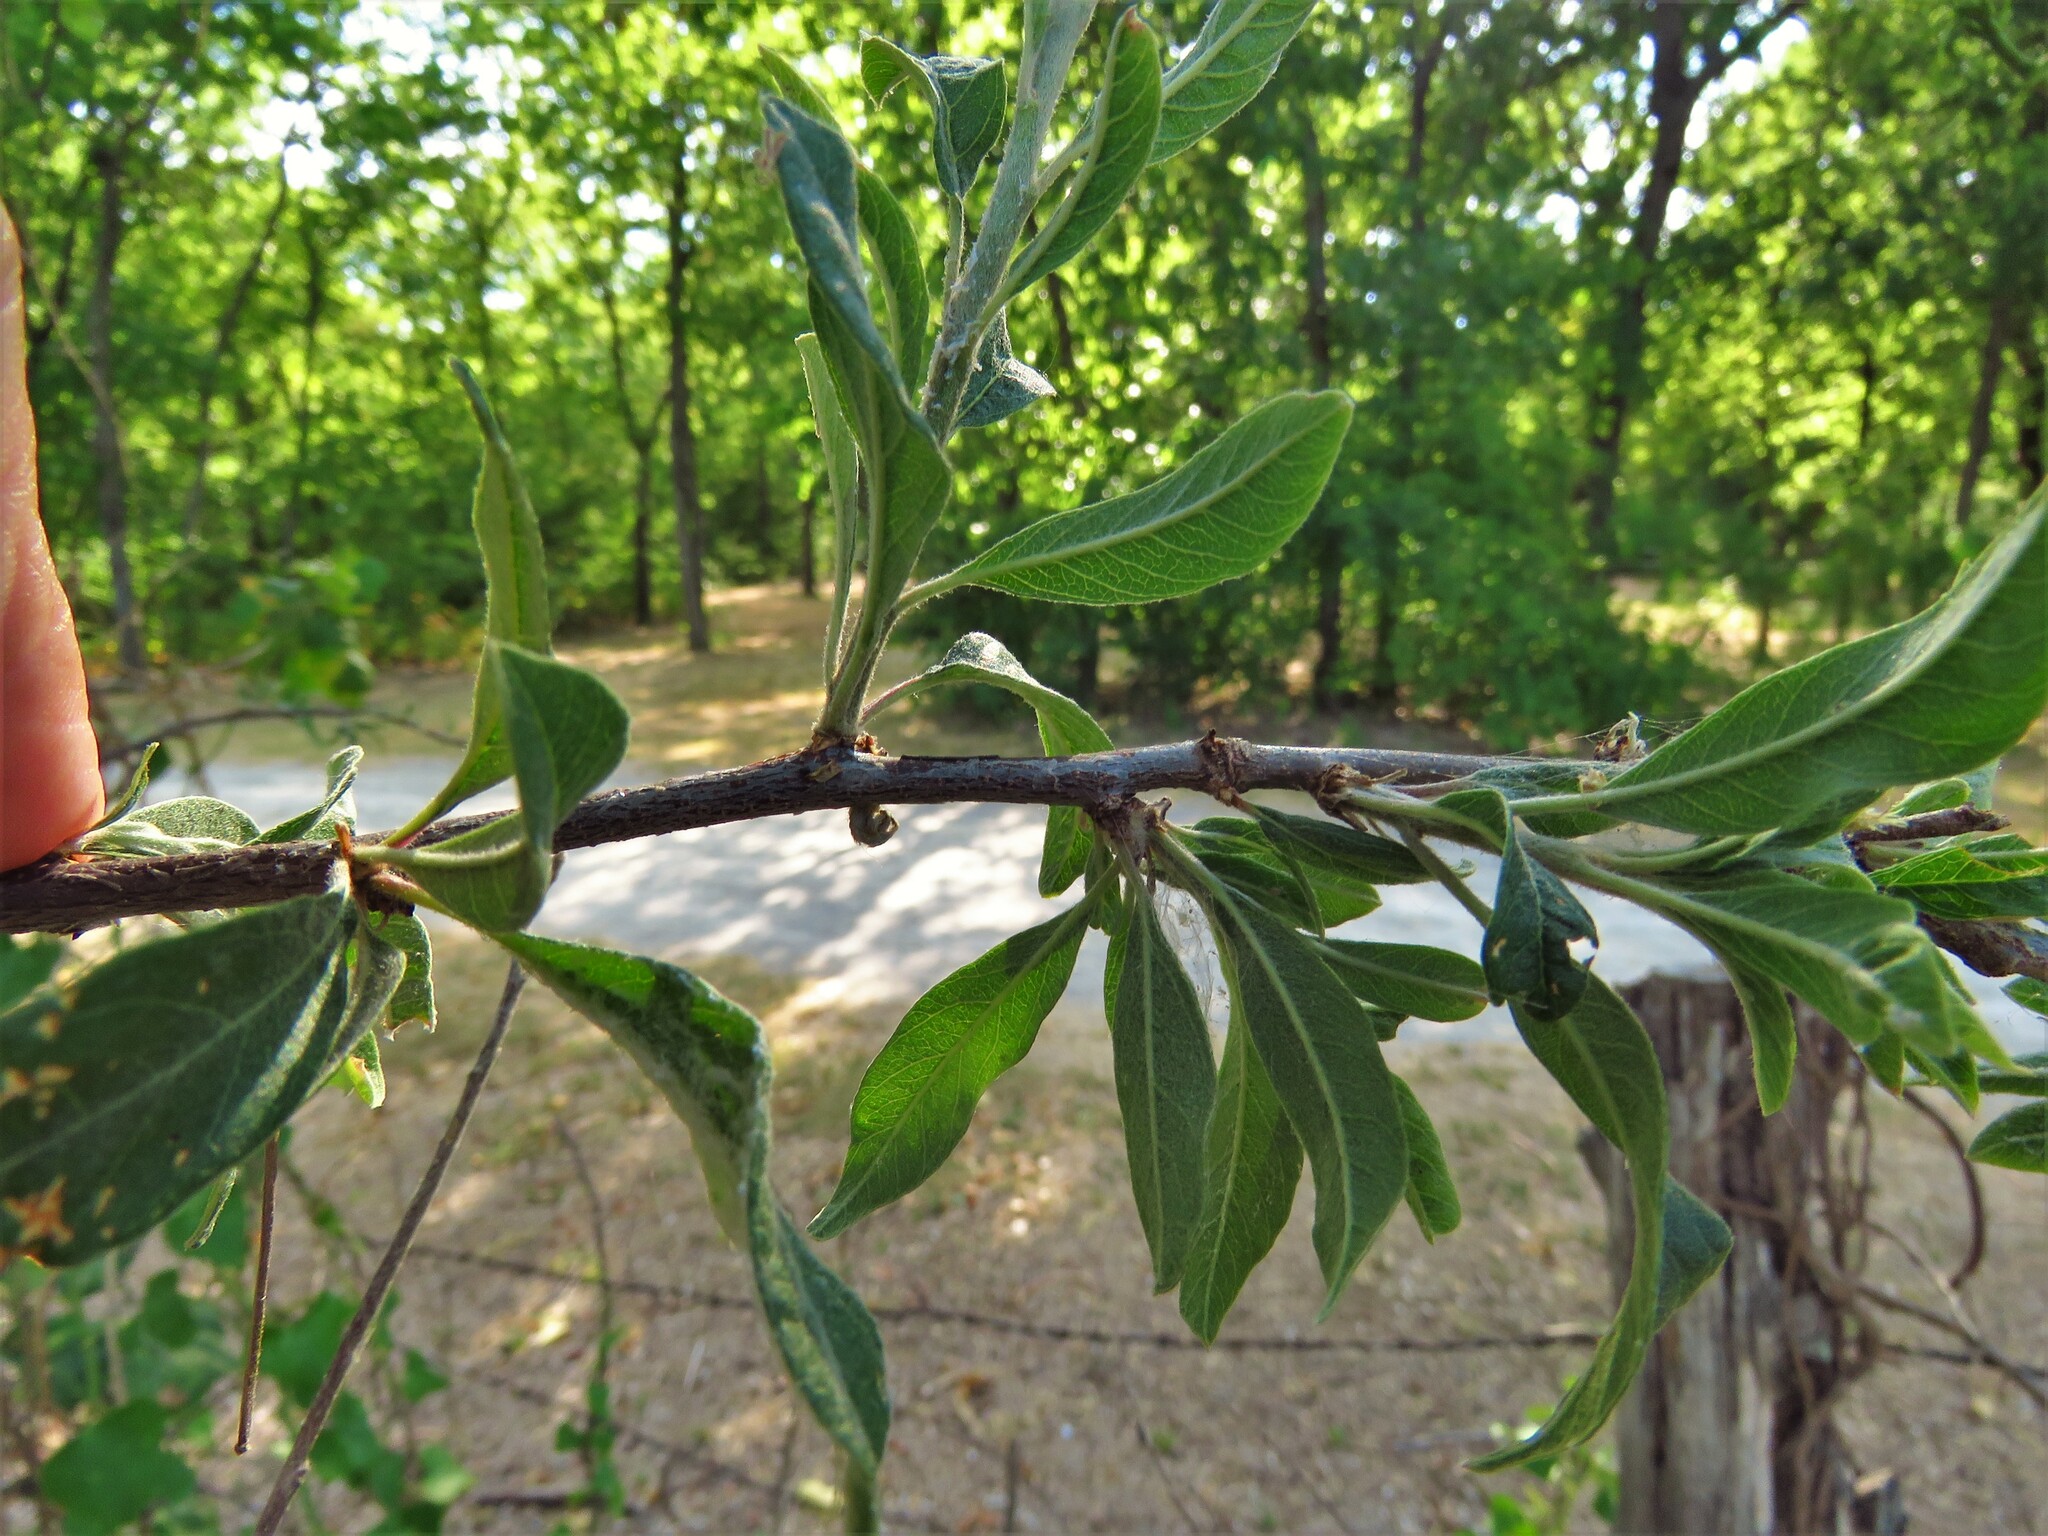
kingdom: Plantae
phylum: Tracheophyta
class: Magnoliopsida
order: Ericales
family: Sapotaceae
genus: Sideroxylon
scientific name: Sideroxylon lanuginosum
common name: Chittamwood
